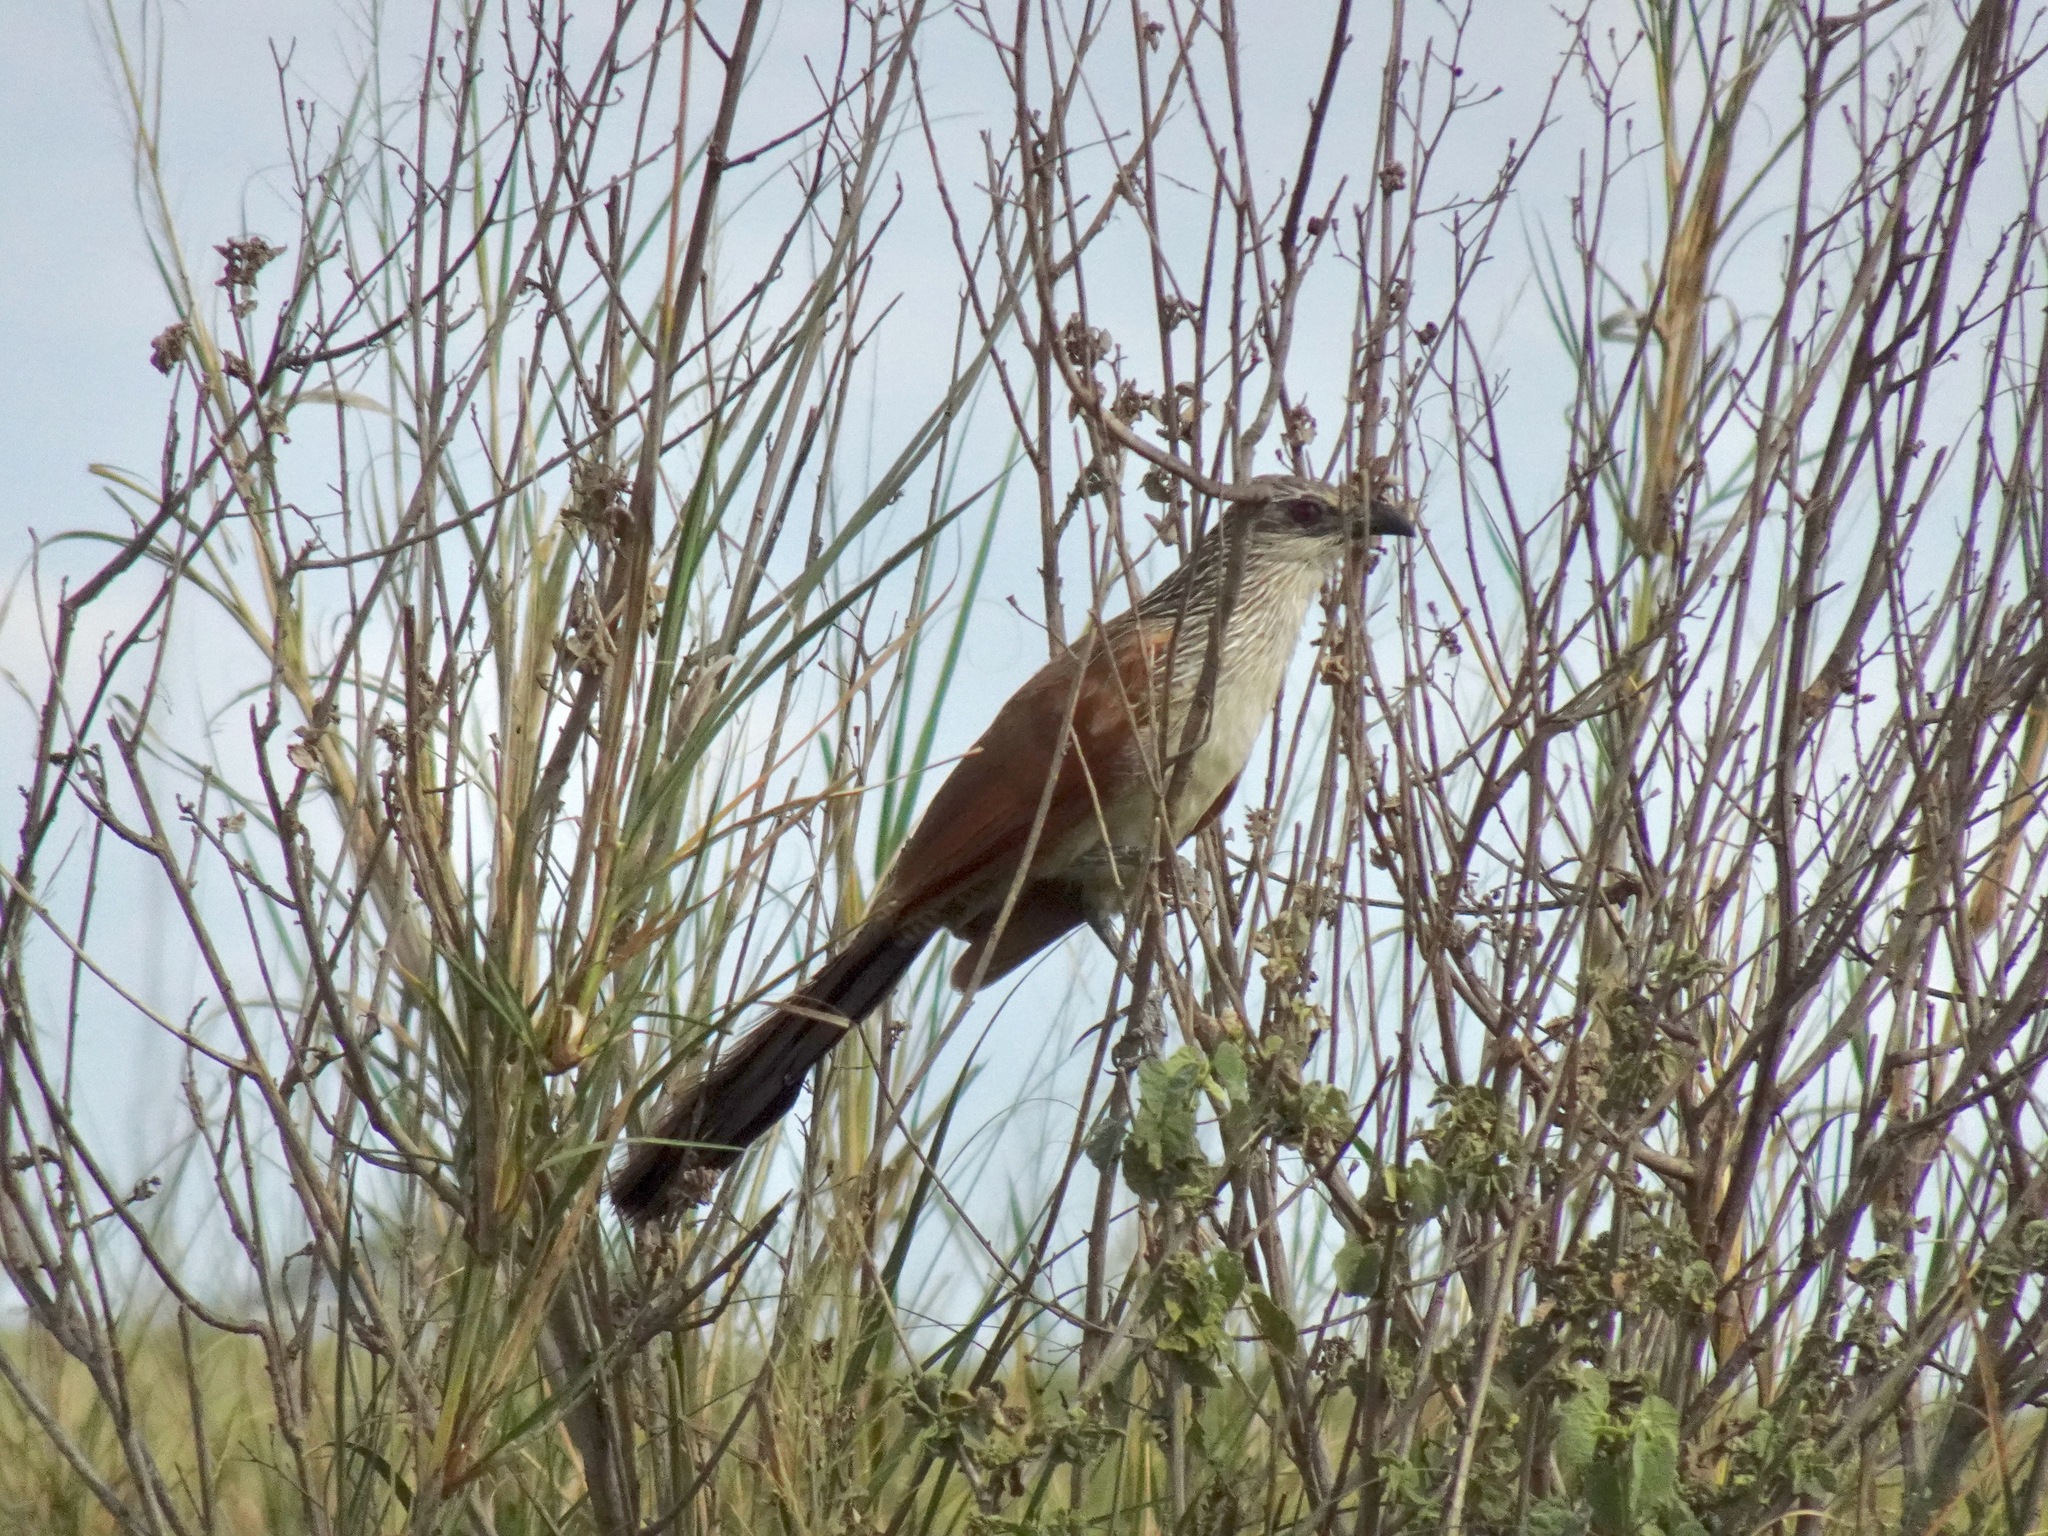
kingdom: Animalia
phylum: Chordata
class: Aves
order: Cuculiformes
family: Cuculidae
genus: Centropus
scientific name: Centropus superciliosus
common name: White-browed coucal
